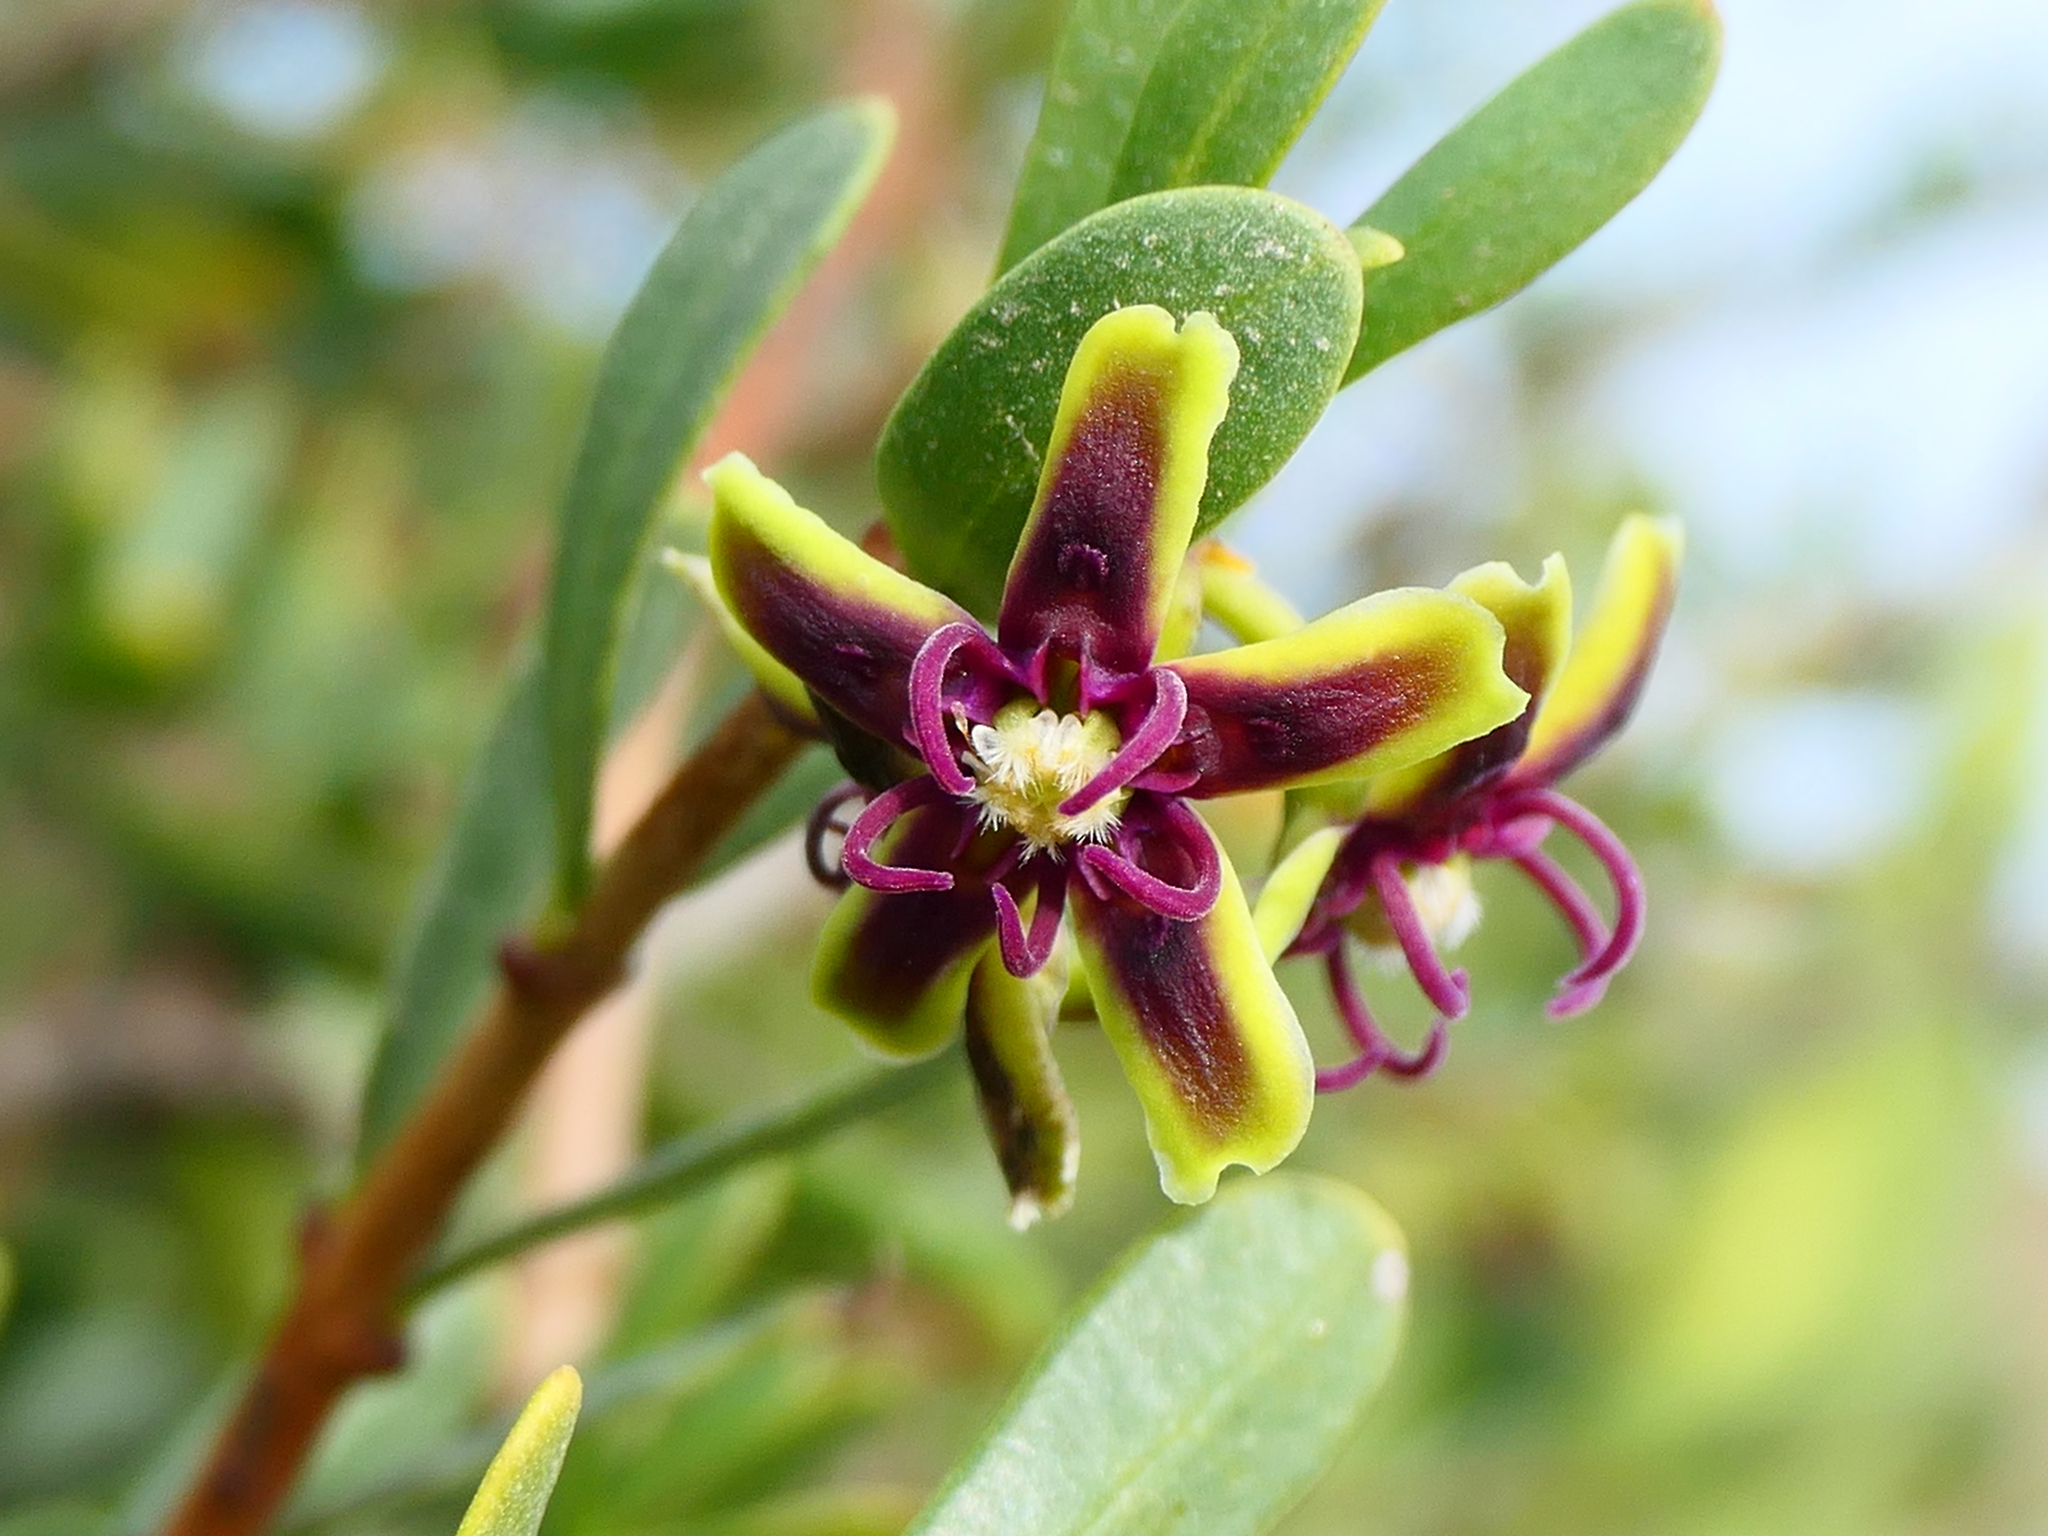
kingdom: Plantae
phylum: Tracheophyta
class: Magnoliopsida
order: Gentianales
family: Apocynaceae
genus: Periploca
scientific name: Periploca laevigata
